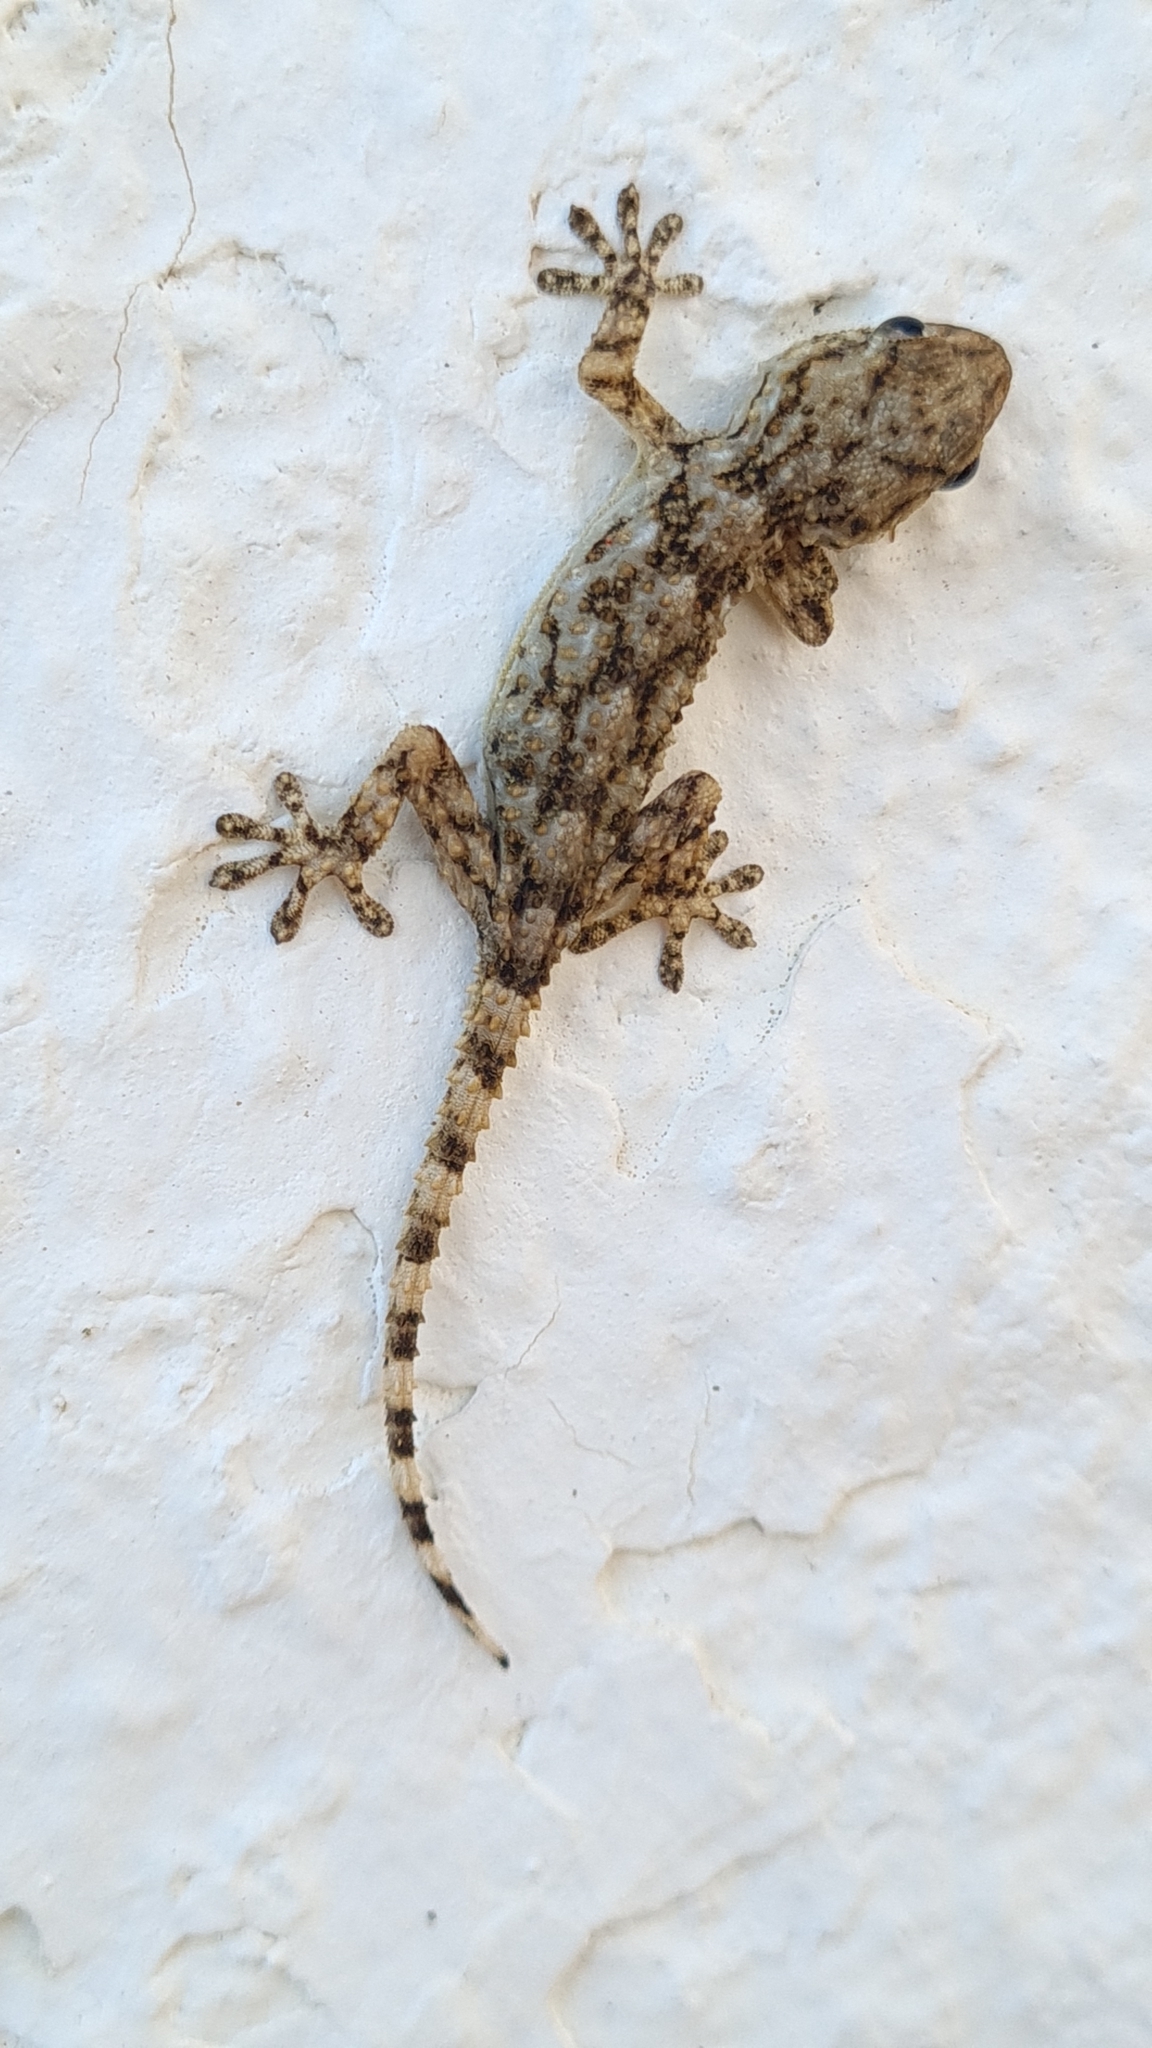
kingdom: Animalia
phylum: Chordata
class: Squamata
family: Phyllodactylidae
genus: Tarentola
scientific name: Tarentola mauritanica
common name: Moorish gecko
